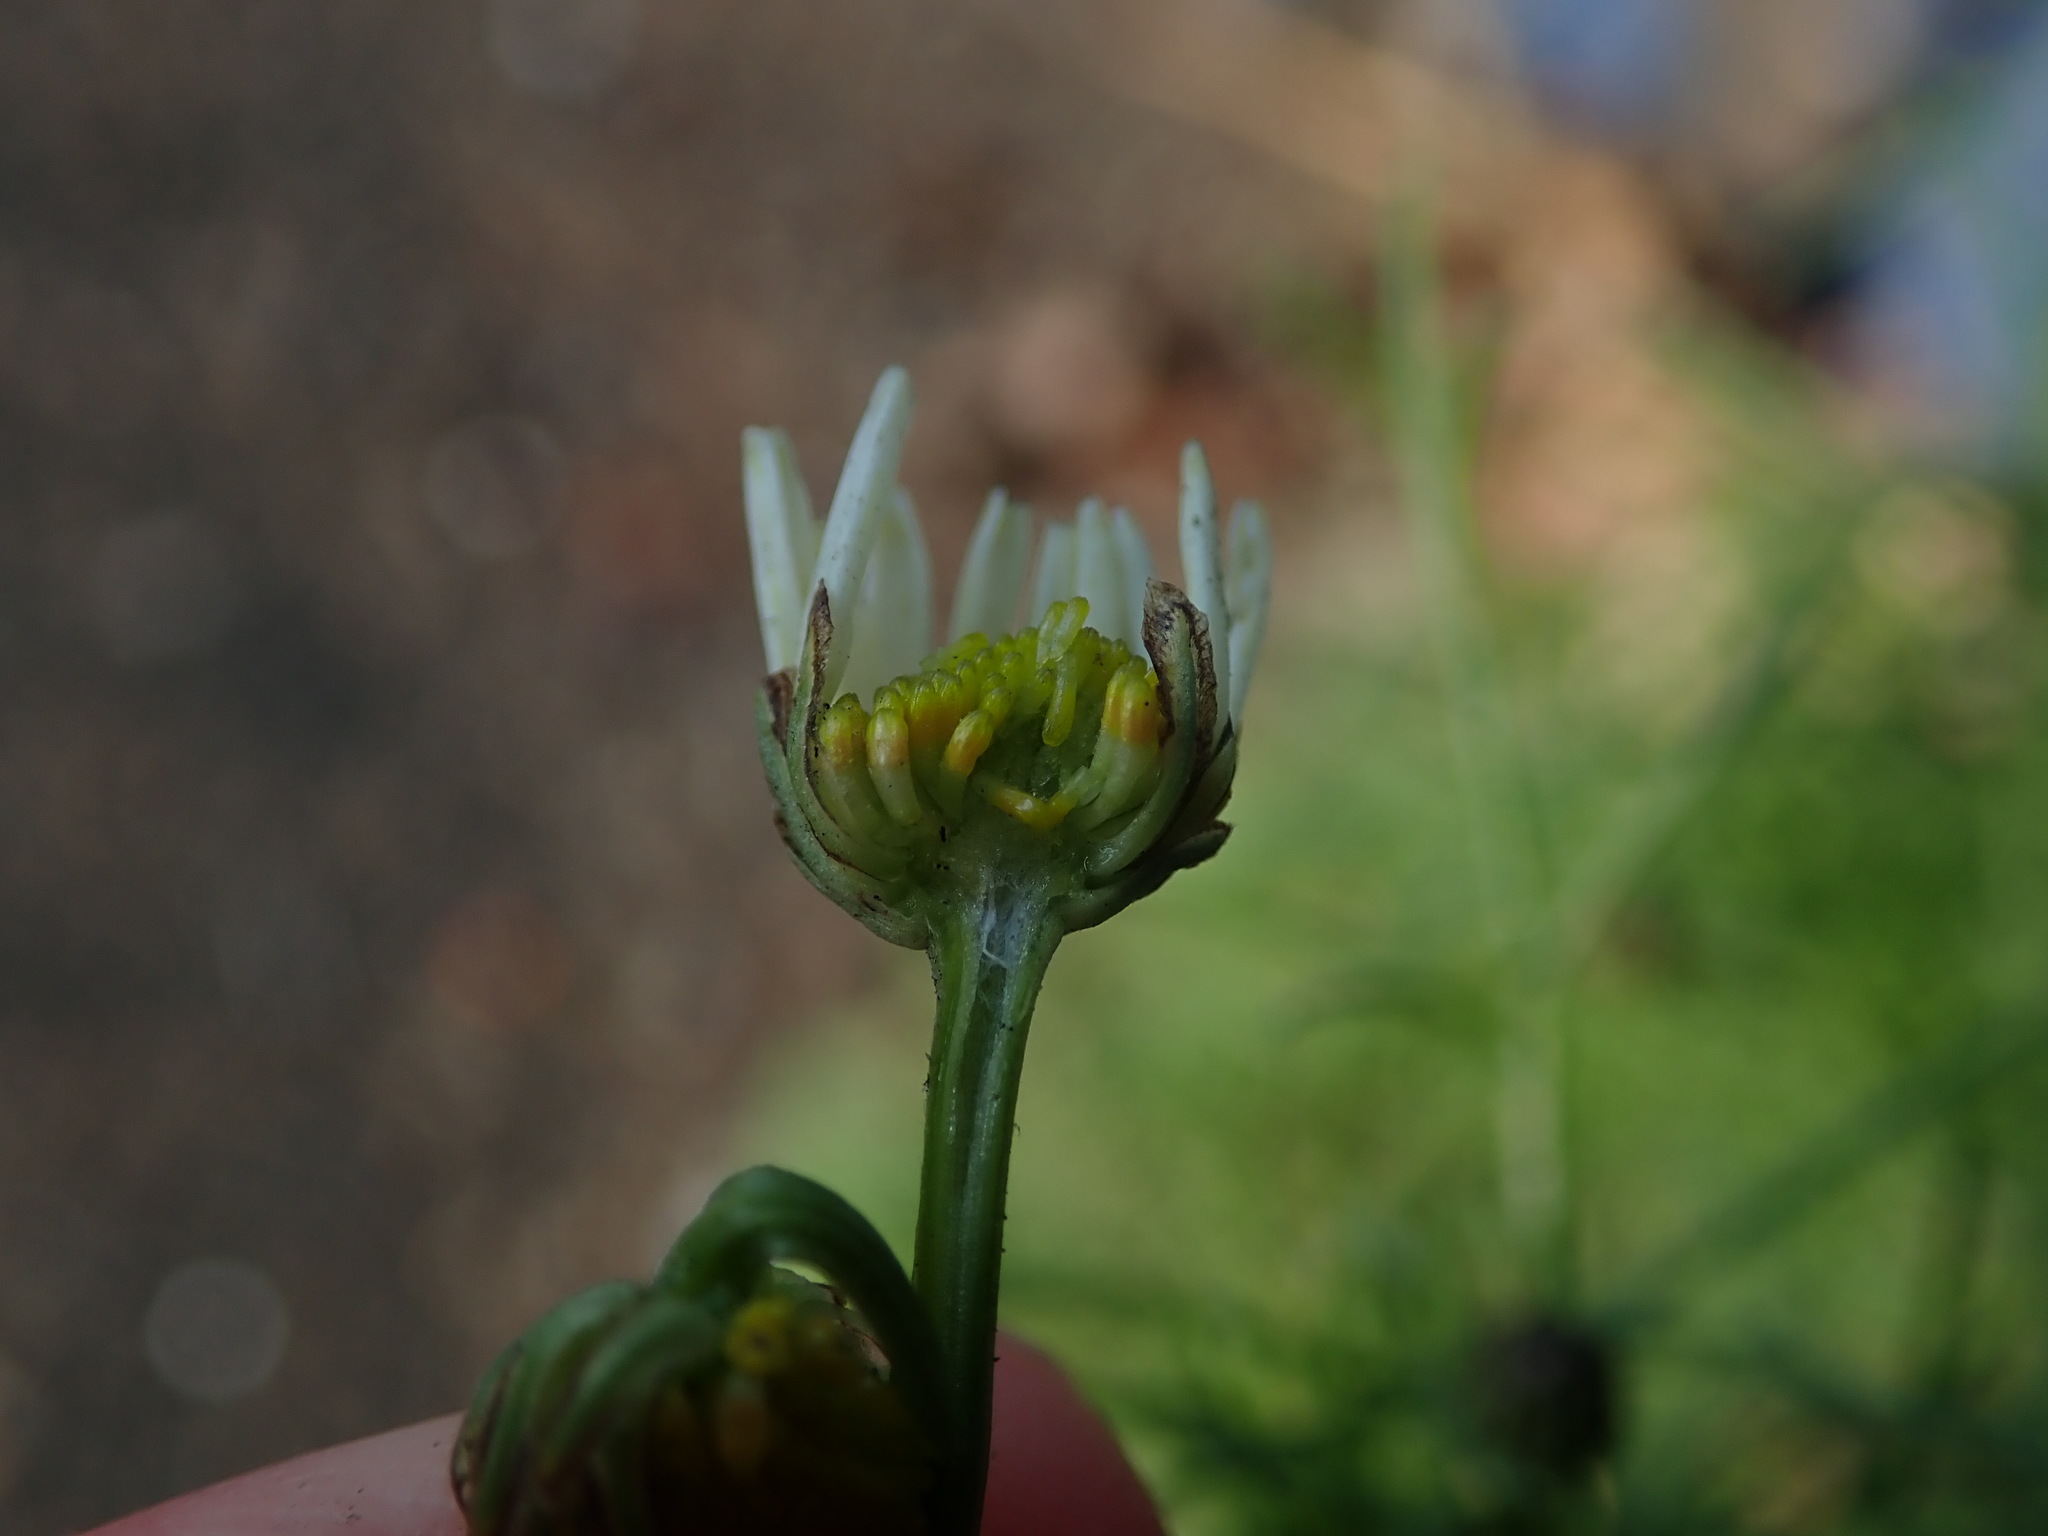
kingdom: Plantae
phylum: Tracheophyta
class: Magnoliopsida
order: Asterales
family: Asteraceae
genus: Tripleurospermum
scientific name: Tripleurospermum inodorum
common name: Scentless mayweed
